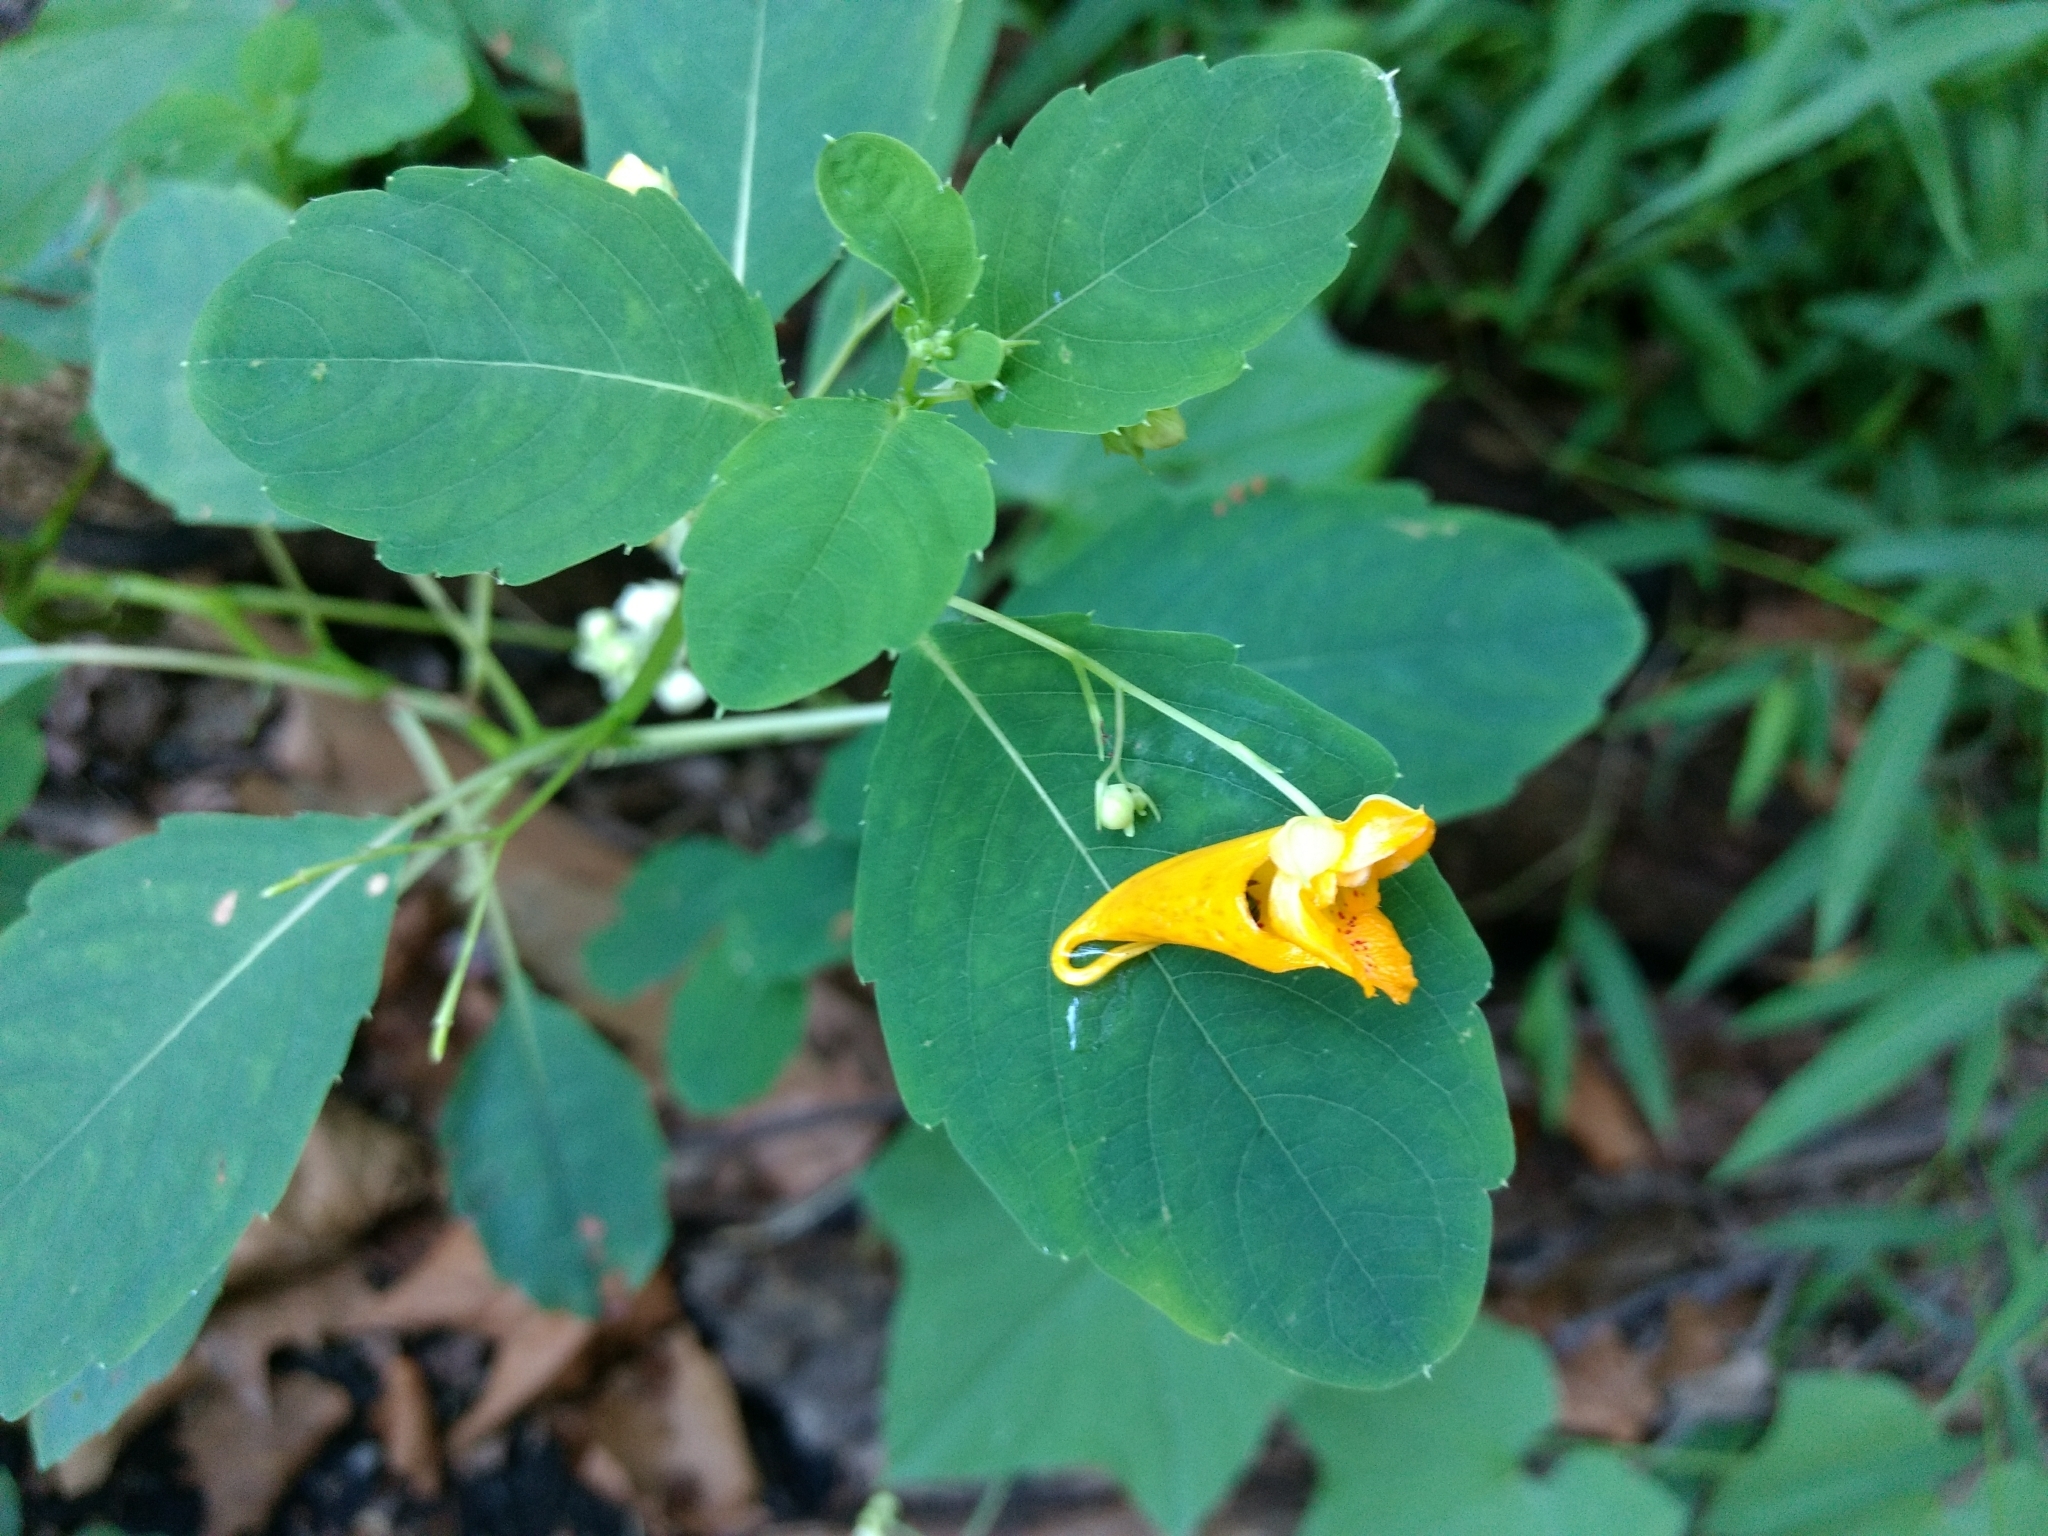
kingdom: Plantae
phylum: Tracheophyta
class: Magnoliopsida
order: Ericales
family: Balsaminaceae
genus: Impatiens
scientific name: Impatiens capensis
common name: Orange balsam
